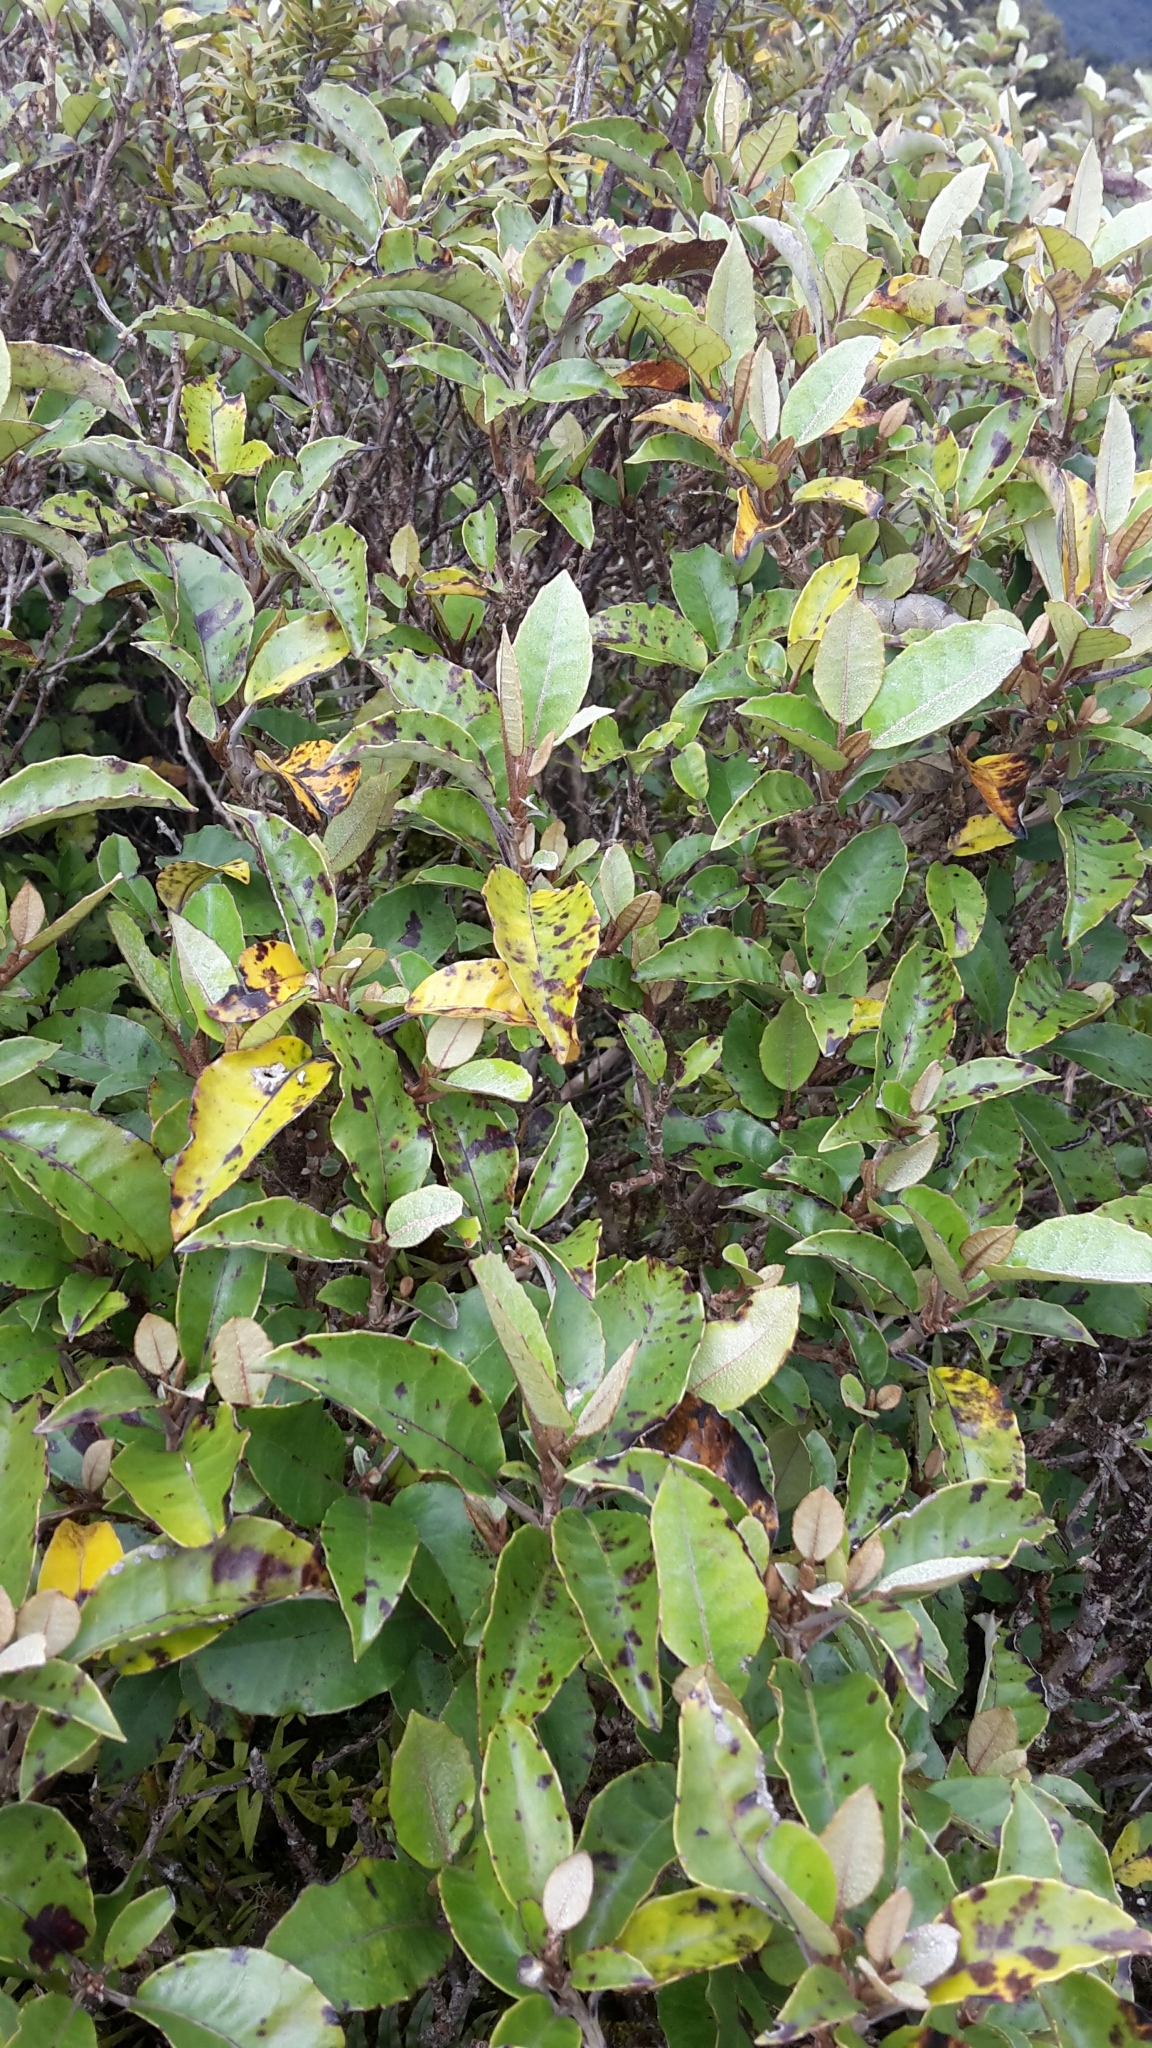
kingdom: Plantae
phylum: Tracheophyta
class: Magnoliopsida
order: Asterales
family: Asteraceae
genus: Olearia
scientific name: Olearia arborescens
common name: Glossy tree daisy
